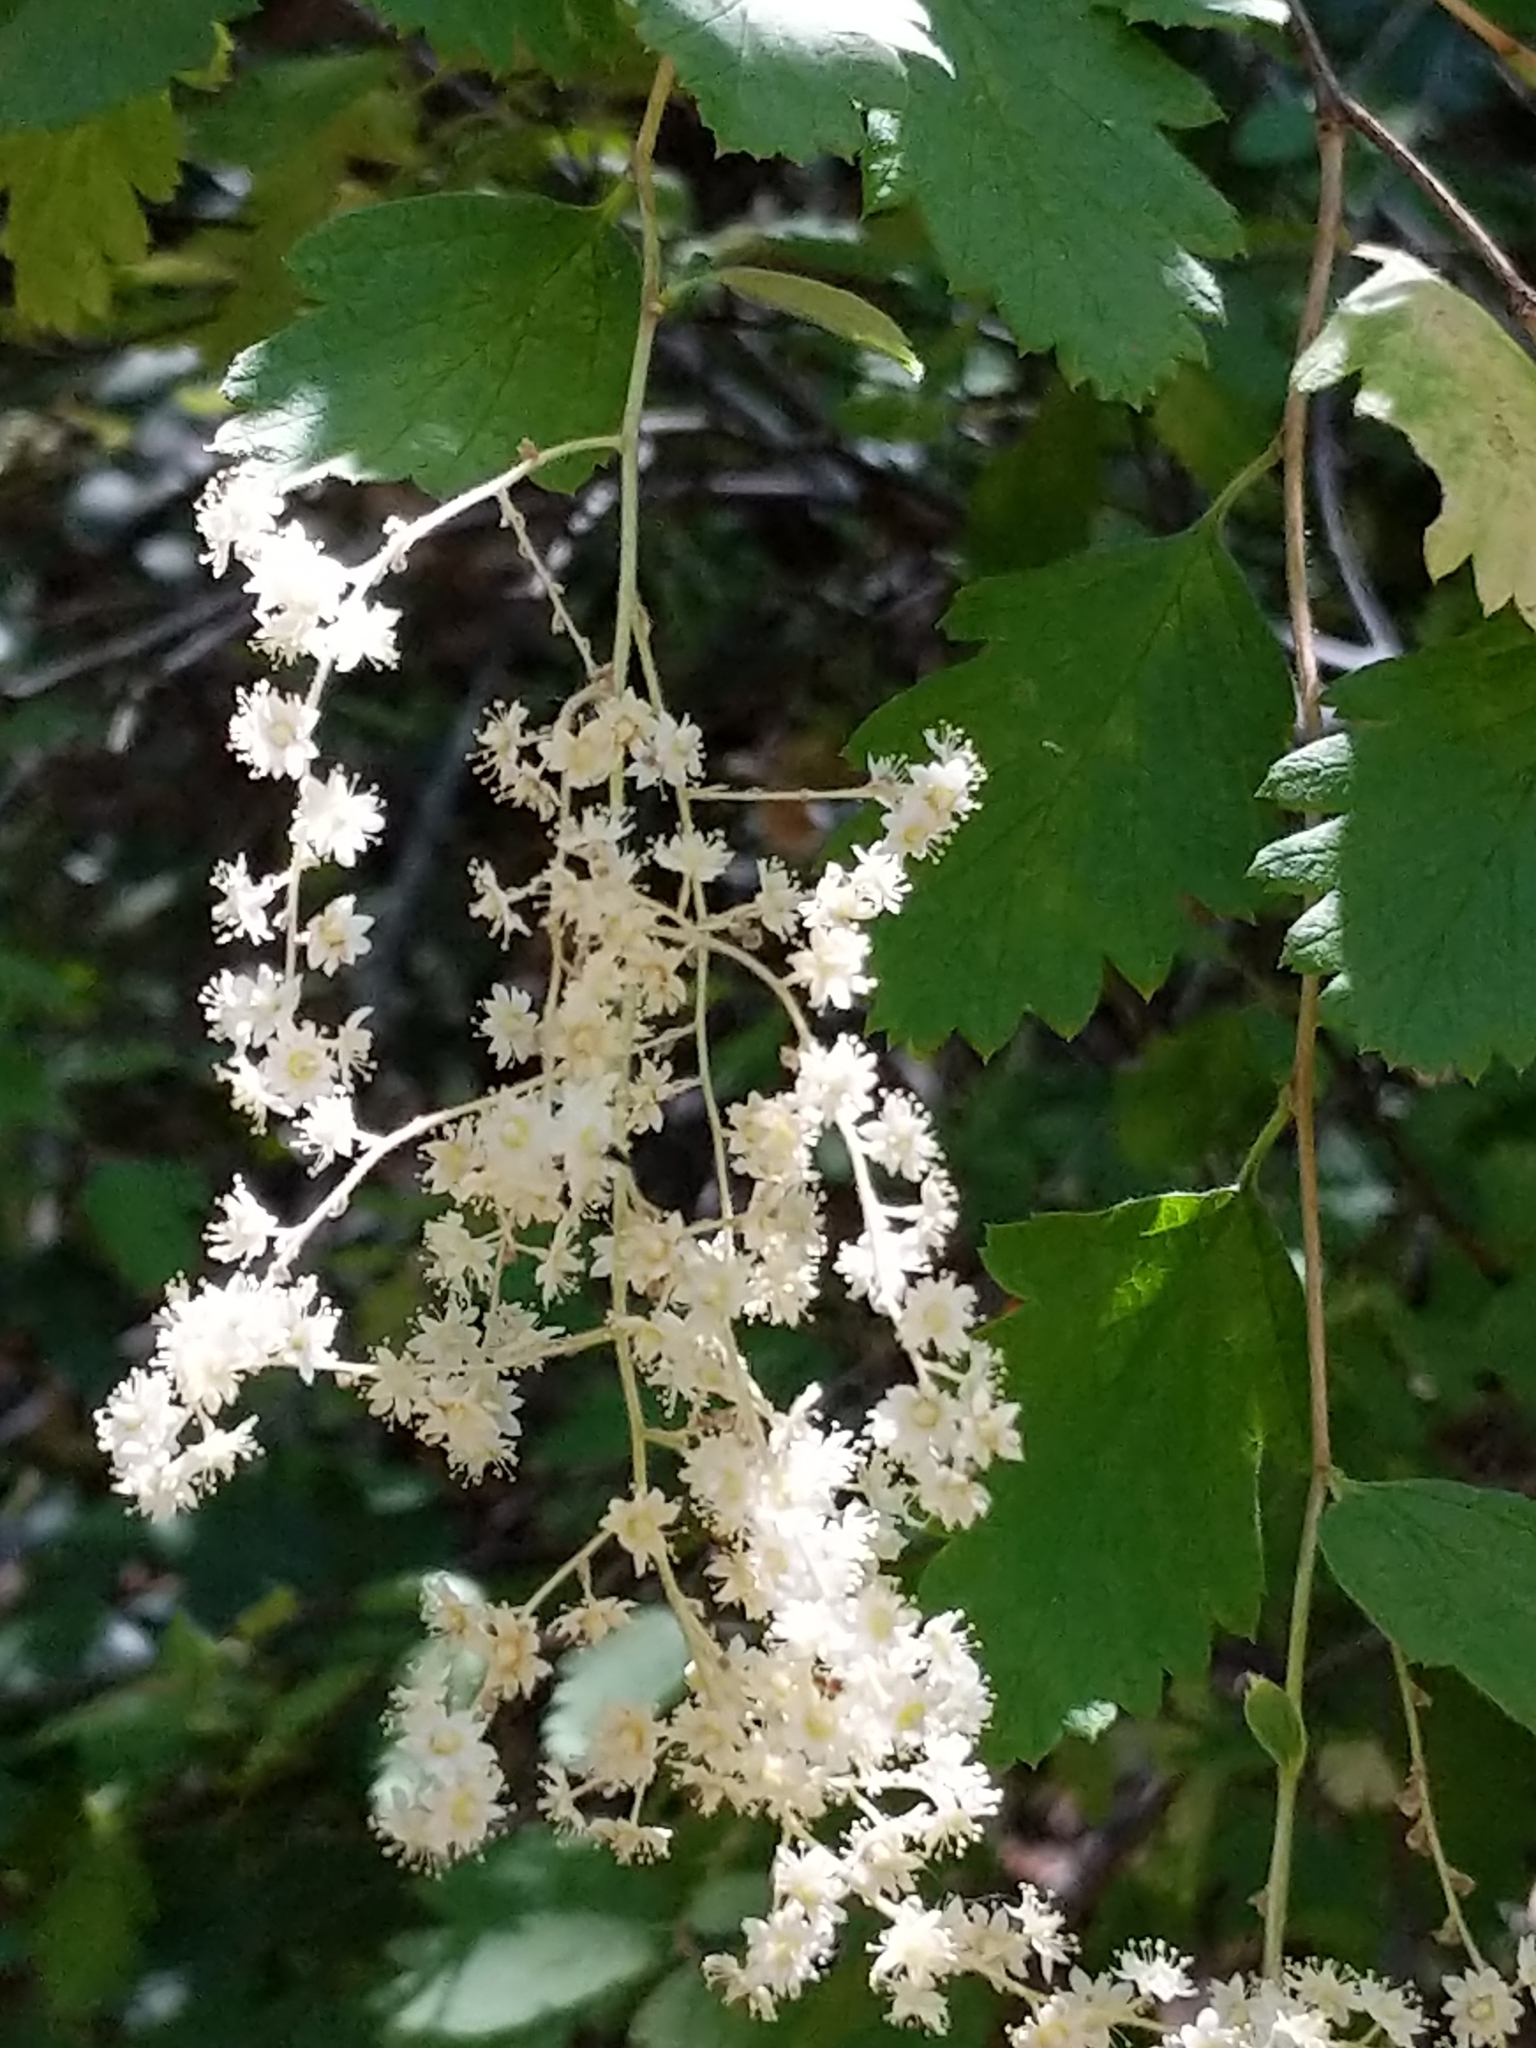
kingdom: Plantae
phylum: Tracheophyta
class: Magnoliopsida
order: Rosales
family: Rosaceae
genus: Holodiscus
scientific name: Holodiscus discolor
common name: Oceanspray
